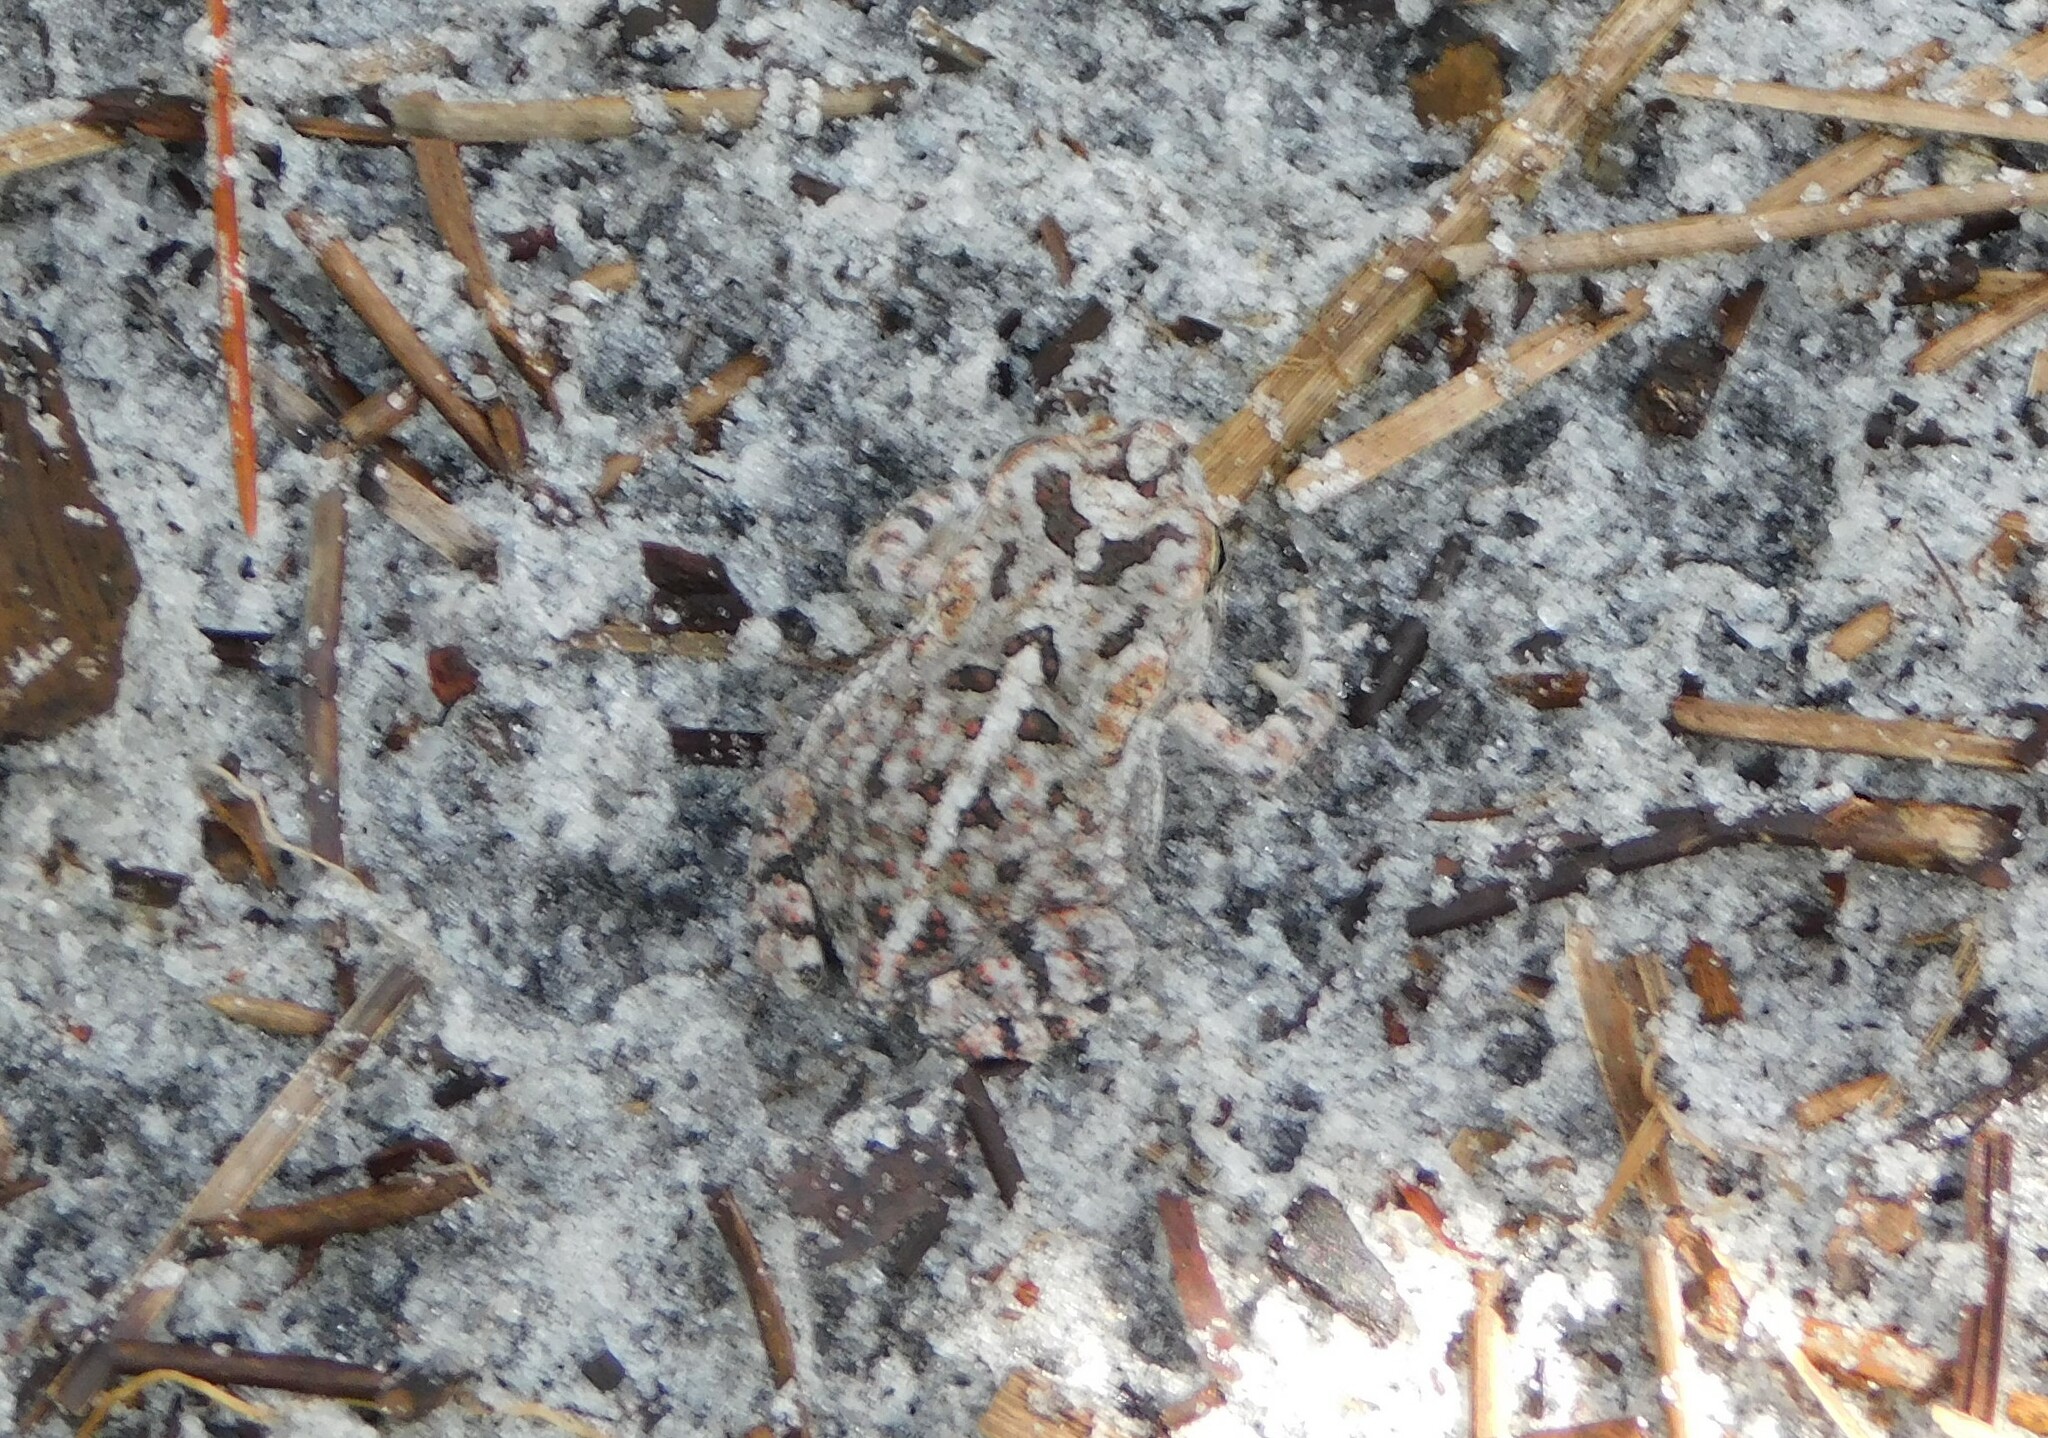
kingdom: Animalia
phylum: Chordata
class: Amphibia
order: Anura
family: Bufonidae
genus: Anaxyrus
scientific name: Anaxyrus terrestris
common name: Southern toad
